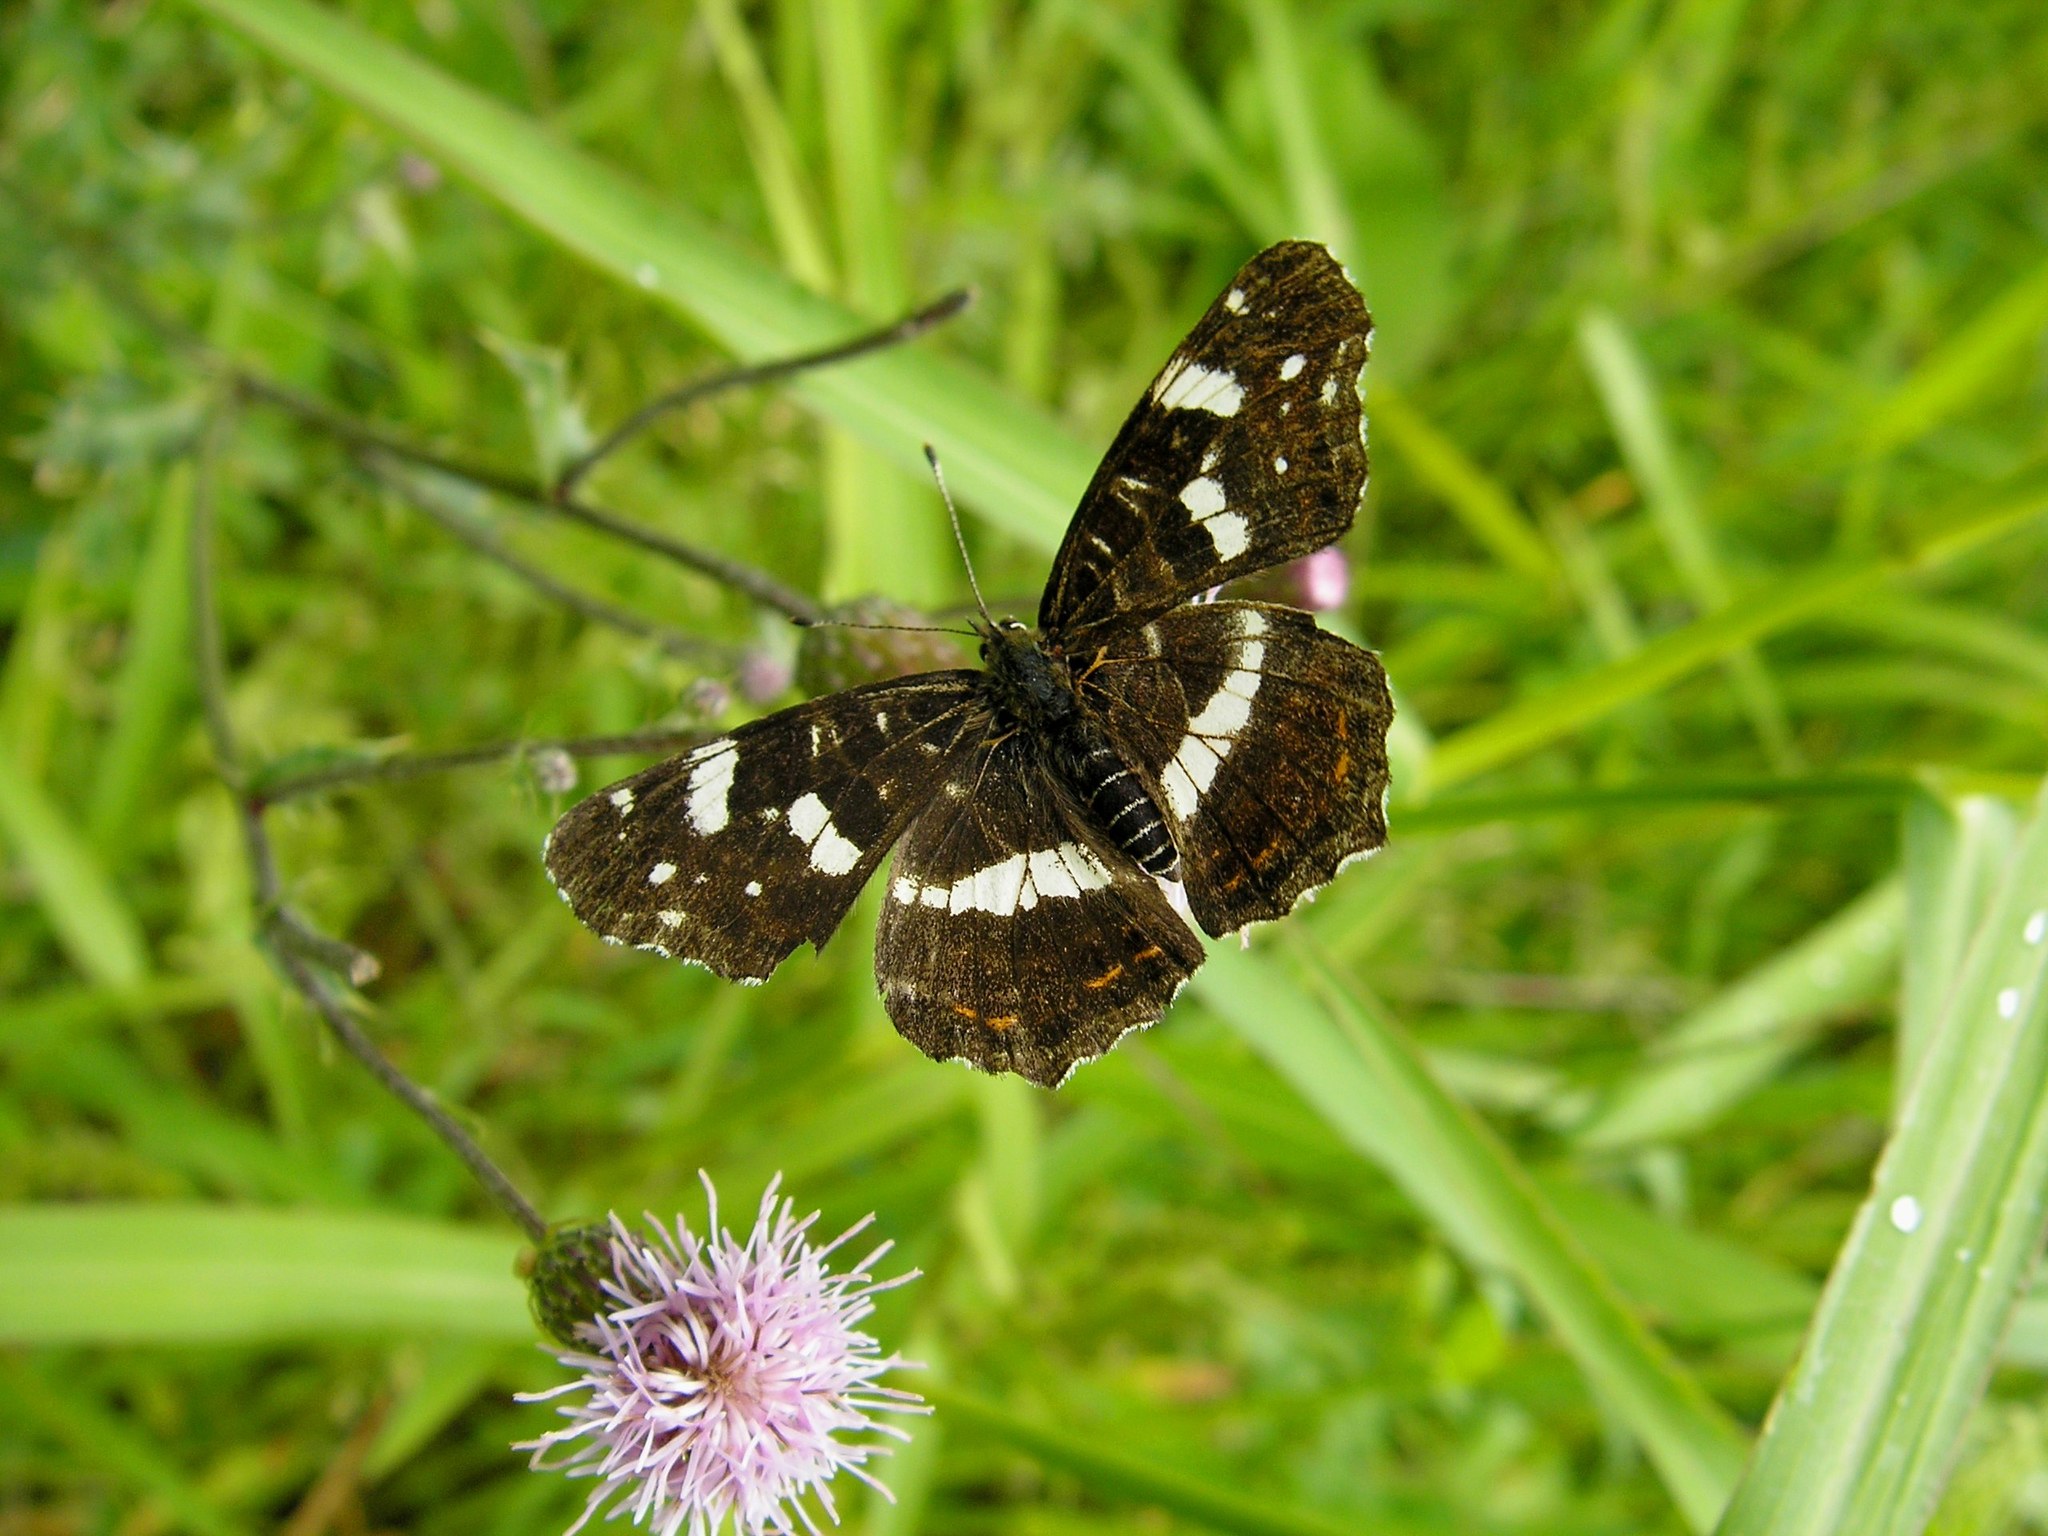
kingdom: Animalia
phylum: Arthropoda
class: Insecta
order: Lepidoptera
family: Nymphalidae
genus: Araschnia
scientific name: Araschnia levana
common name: Map butterfly
